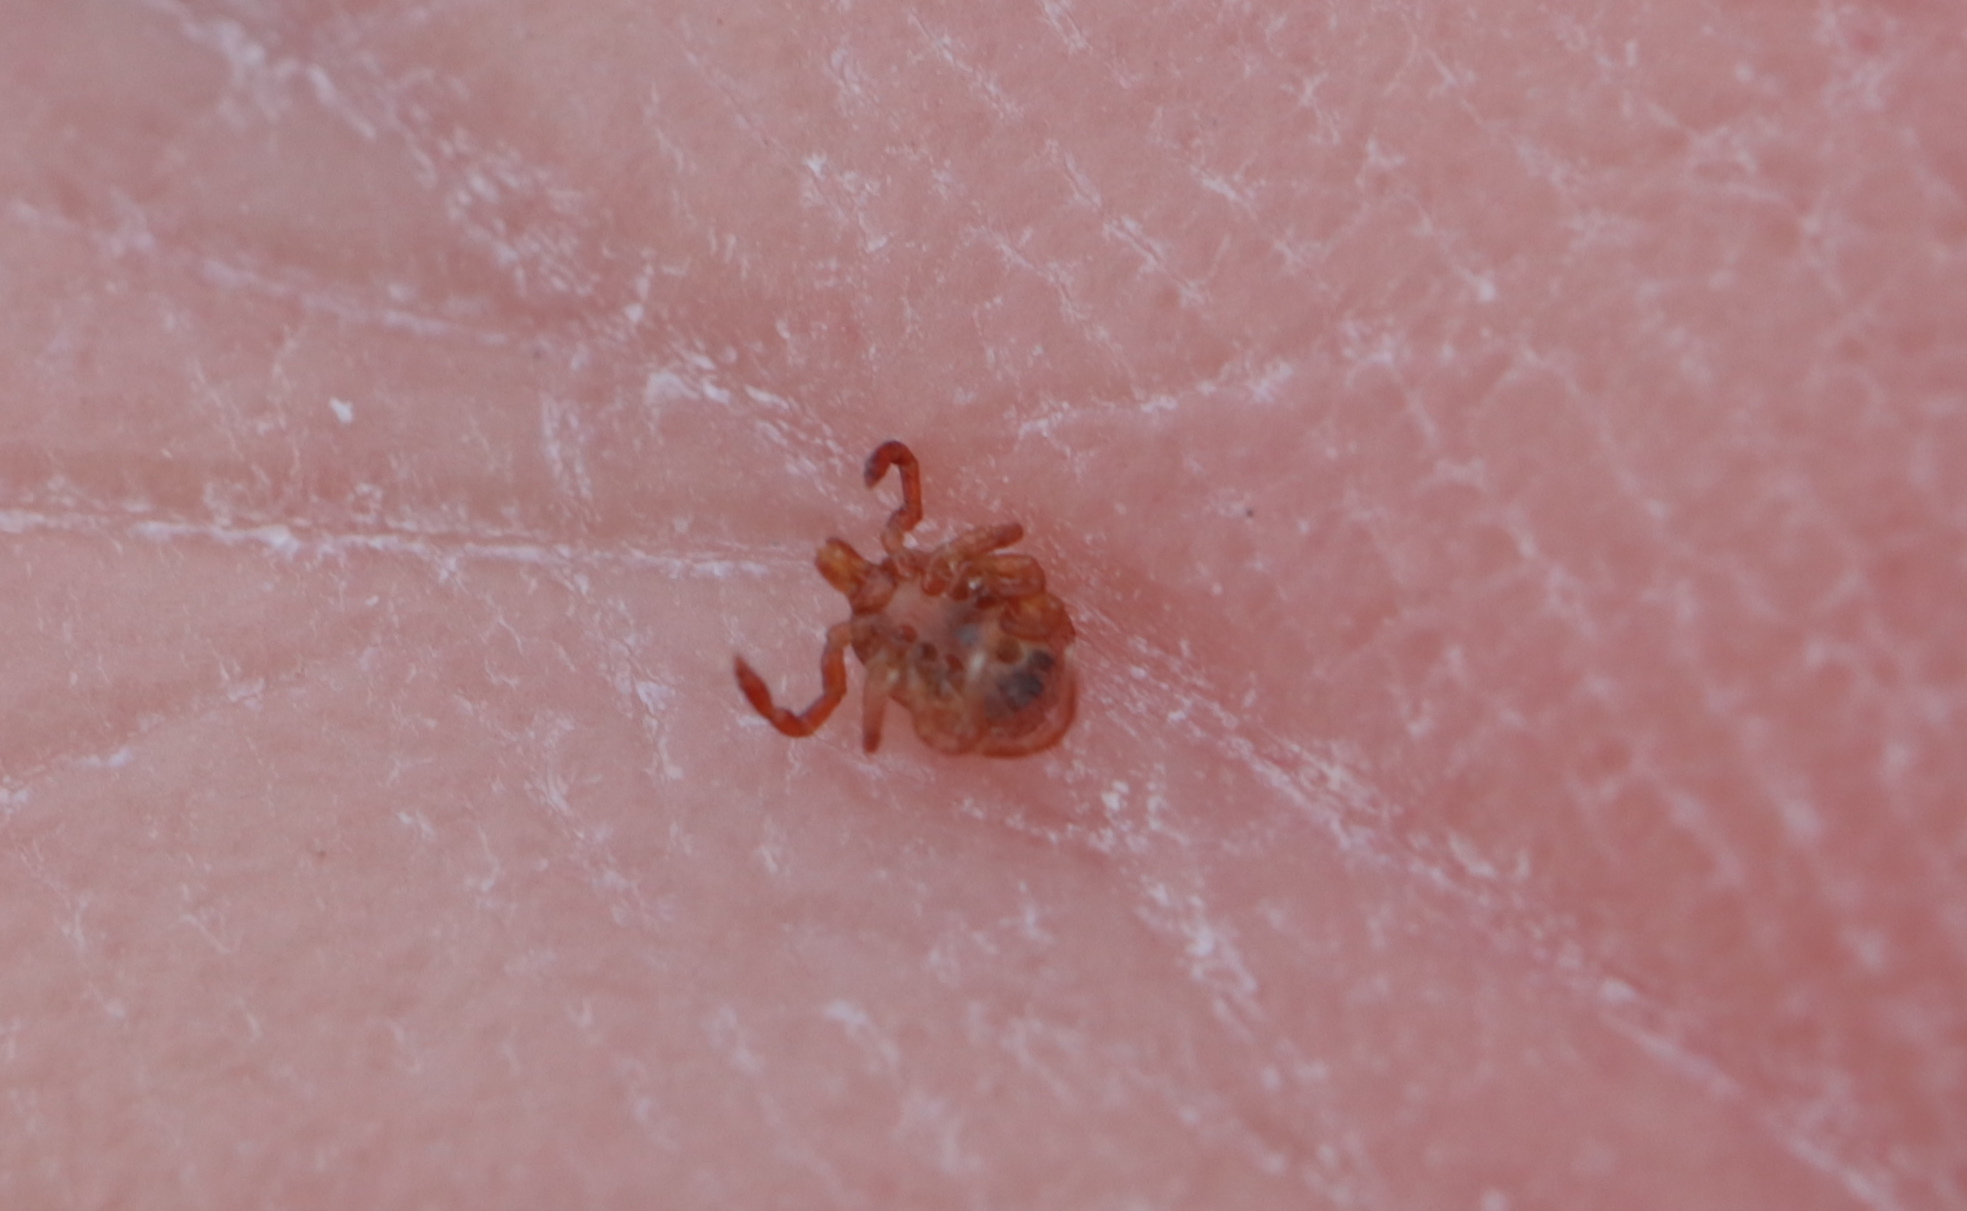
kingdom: Animalia
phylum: Arthropoda
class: Arachnida
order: Ixodida
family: Ixodidae
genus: Amblyomma
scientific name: Amblyomma americanum
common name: Lone star tick
